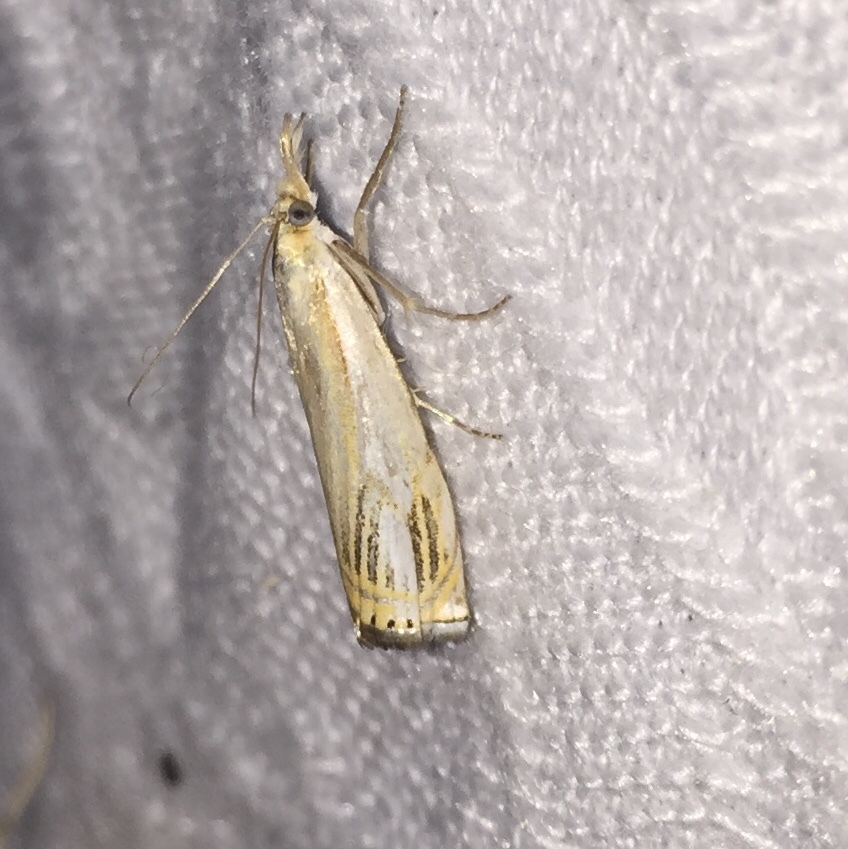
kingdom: Animalia
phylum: Arthropoda
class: Insecta
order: Lepidoptera
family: Crambidae
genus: Crambus
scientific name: Crambus agitatellus
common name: Double-banded grass-veneer
